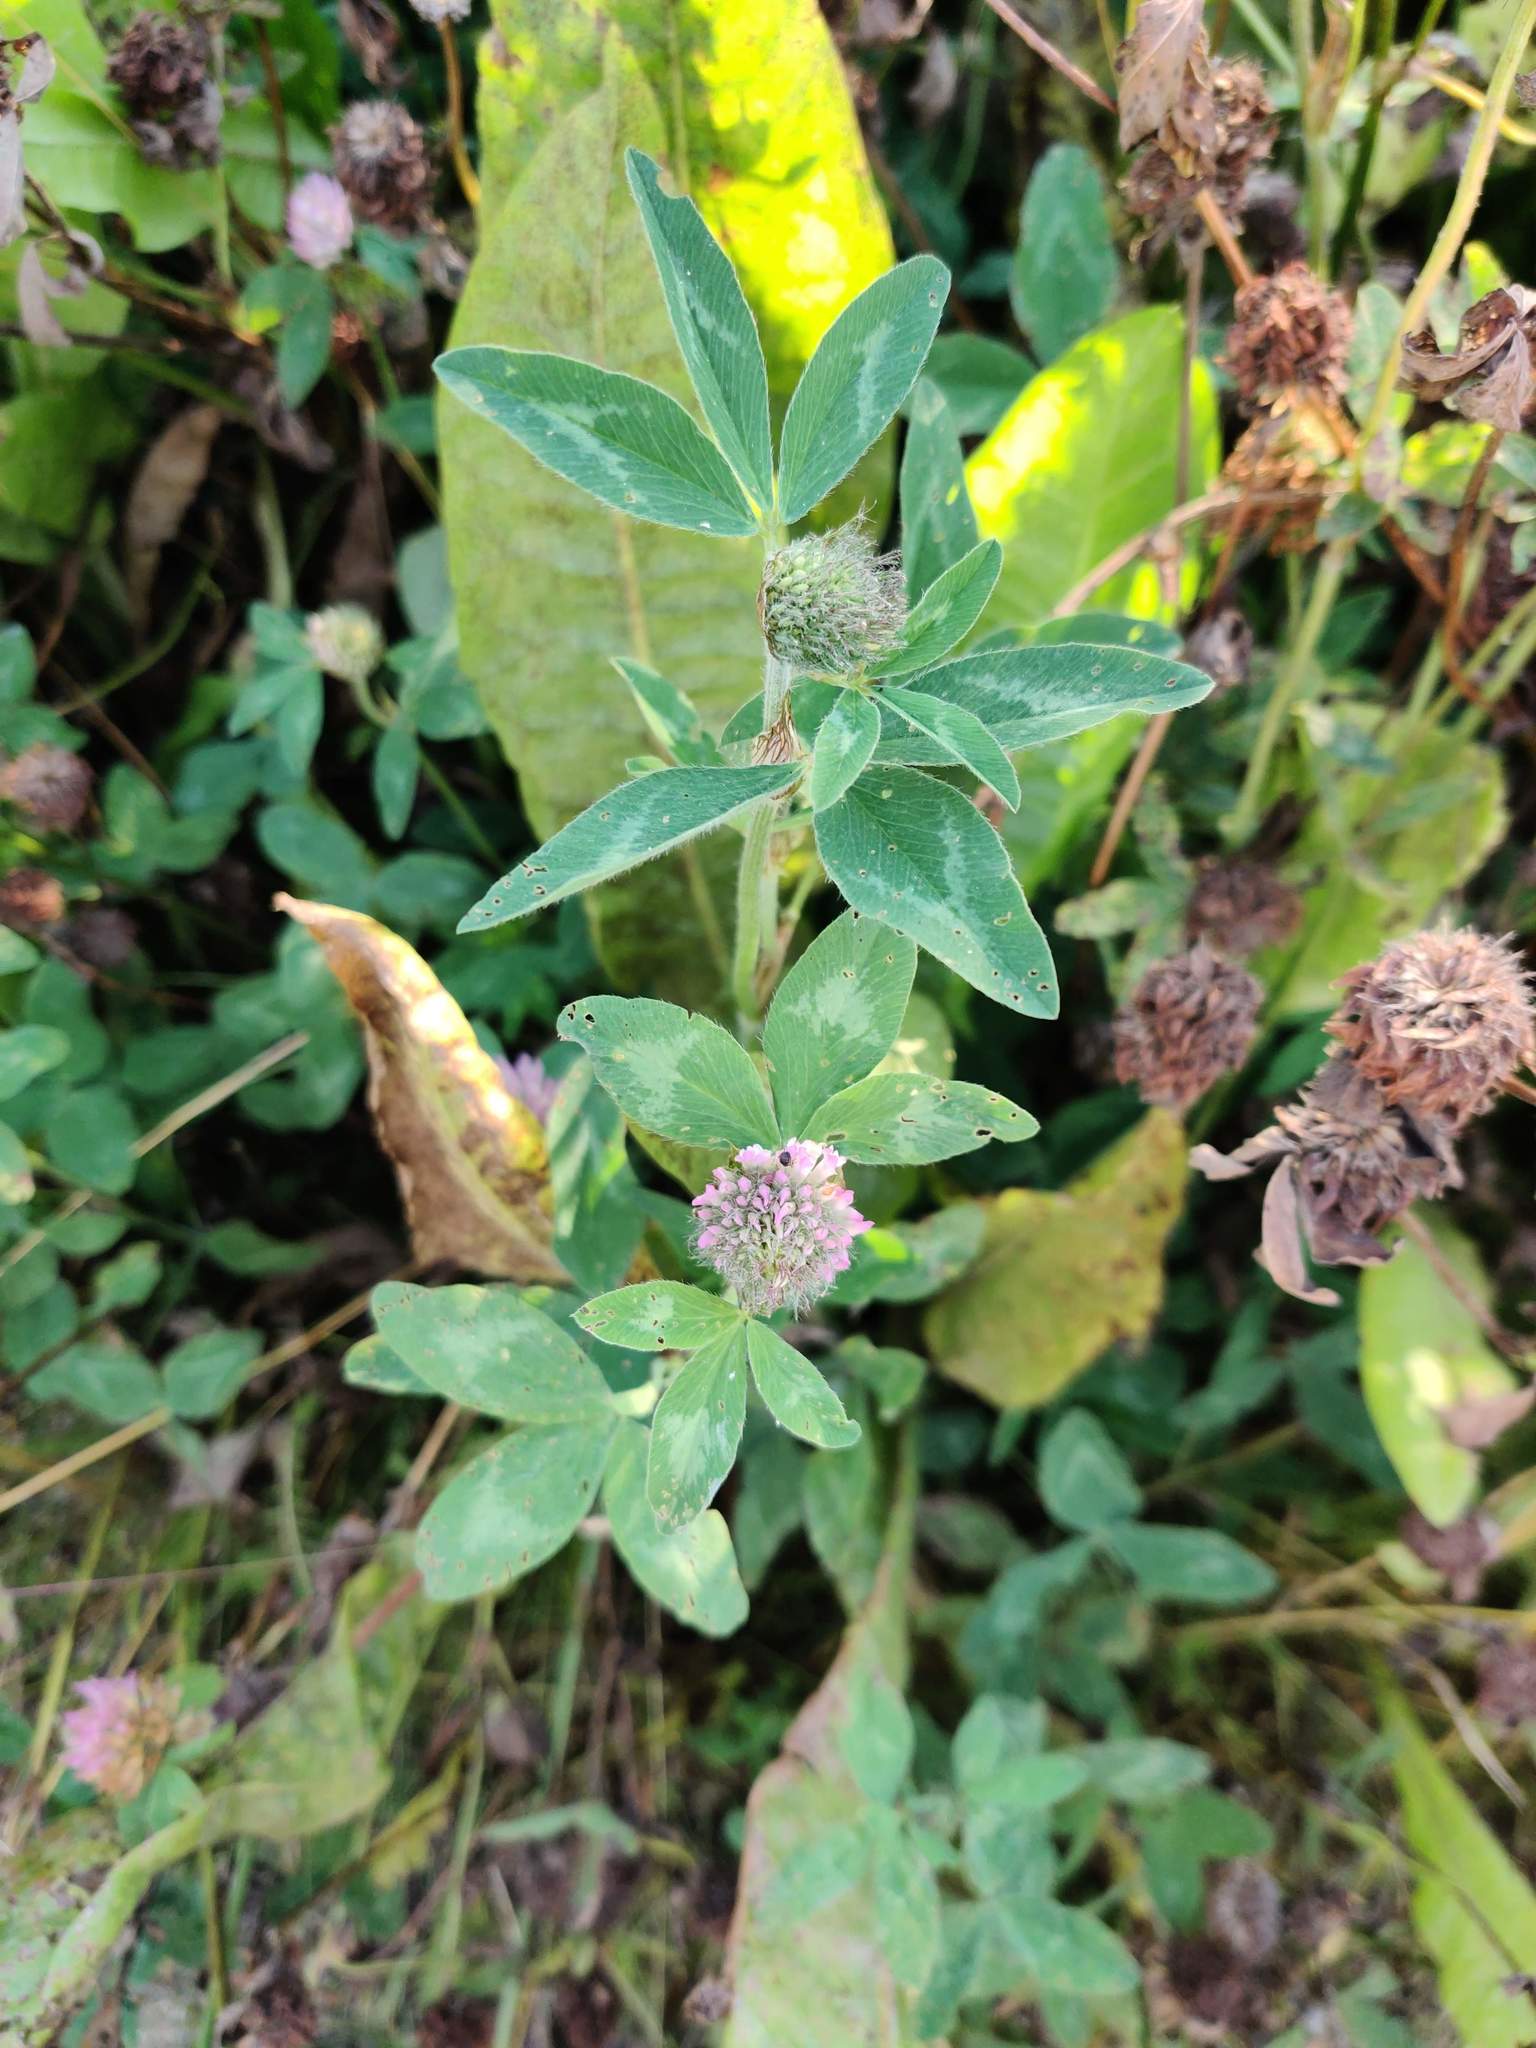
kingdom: Plantae
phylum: Tracheophyta
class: Magnoliopsida
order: Fabales
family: Fabaceae
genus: Trifolium
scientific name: Trifolium pratense
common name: Red clover
